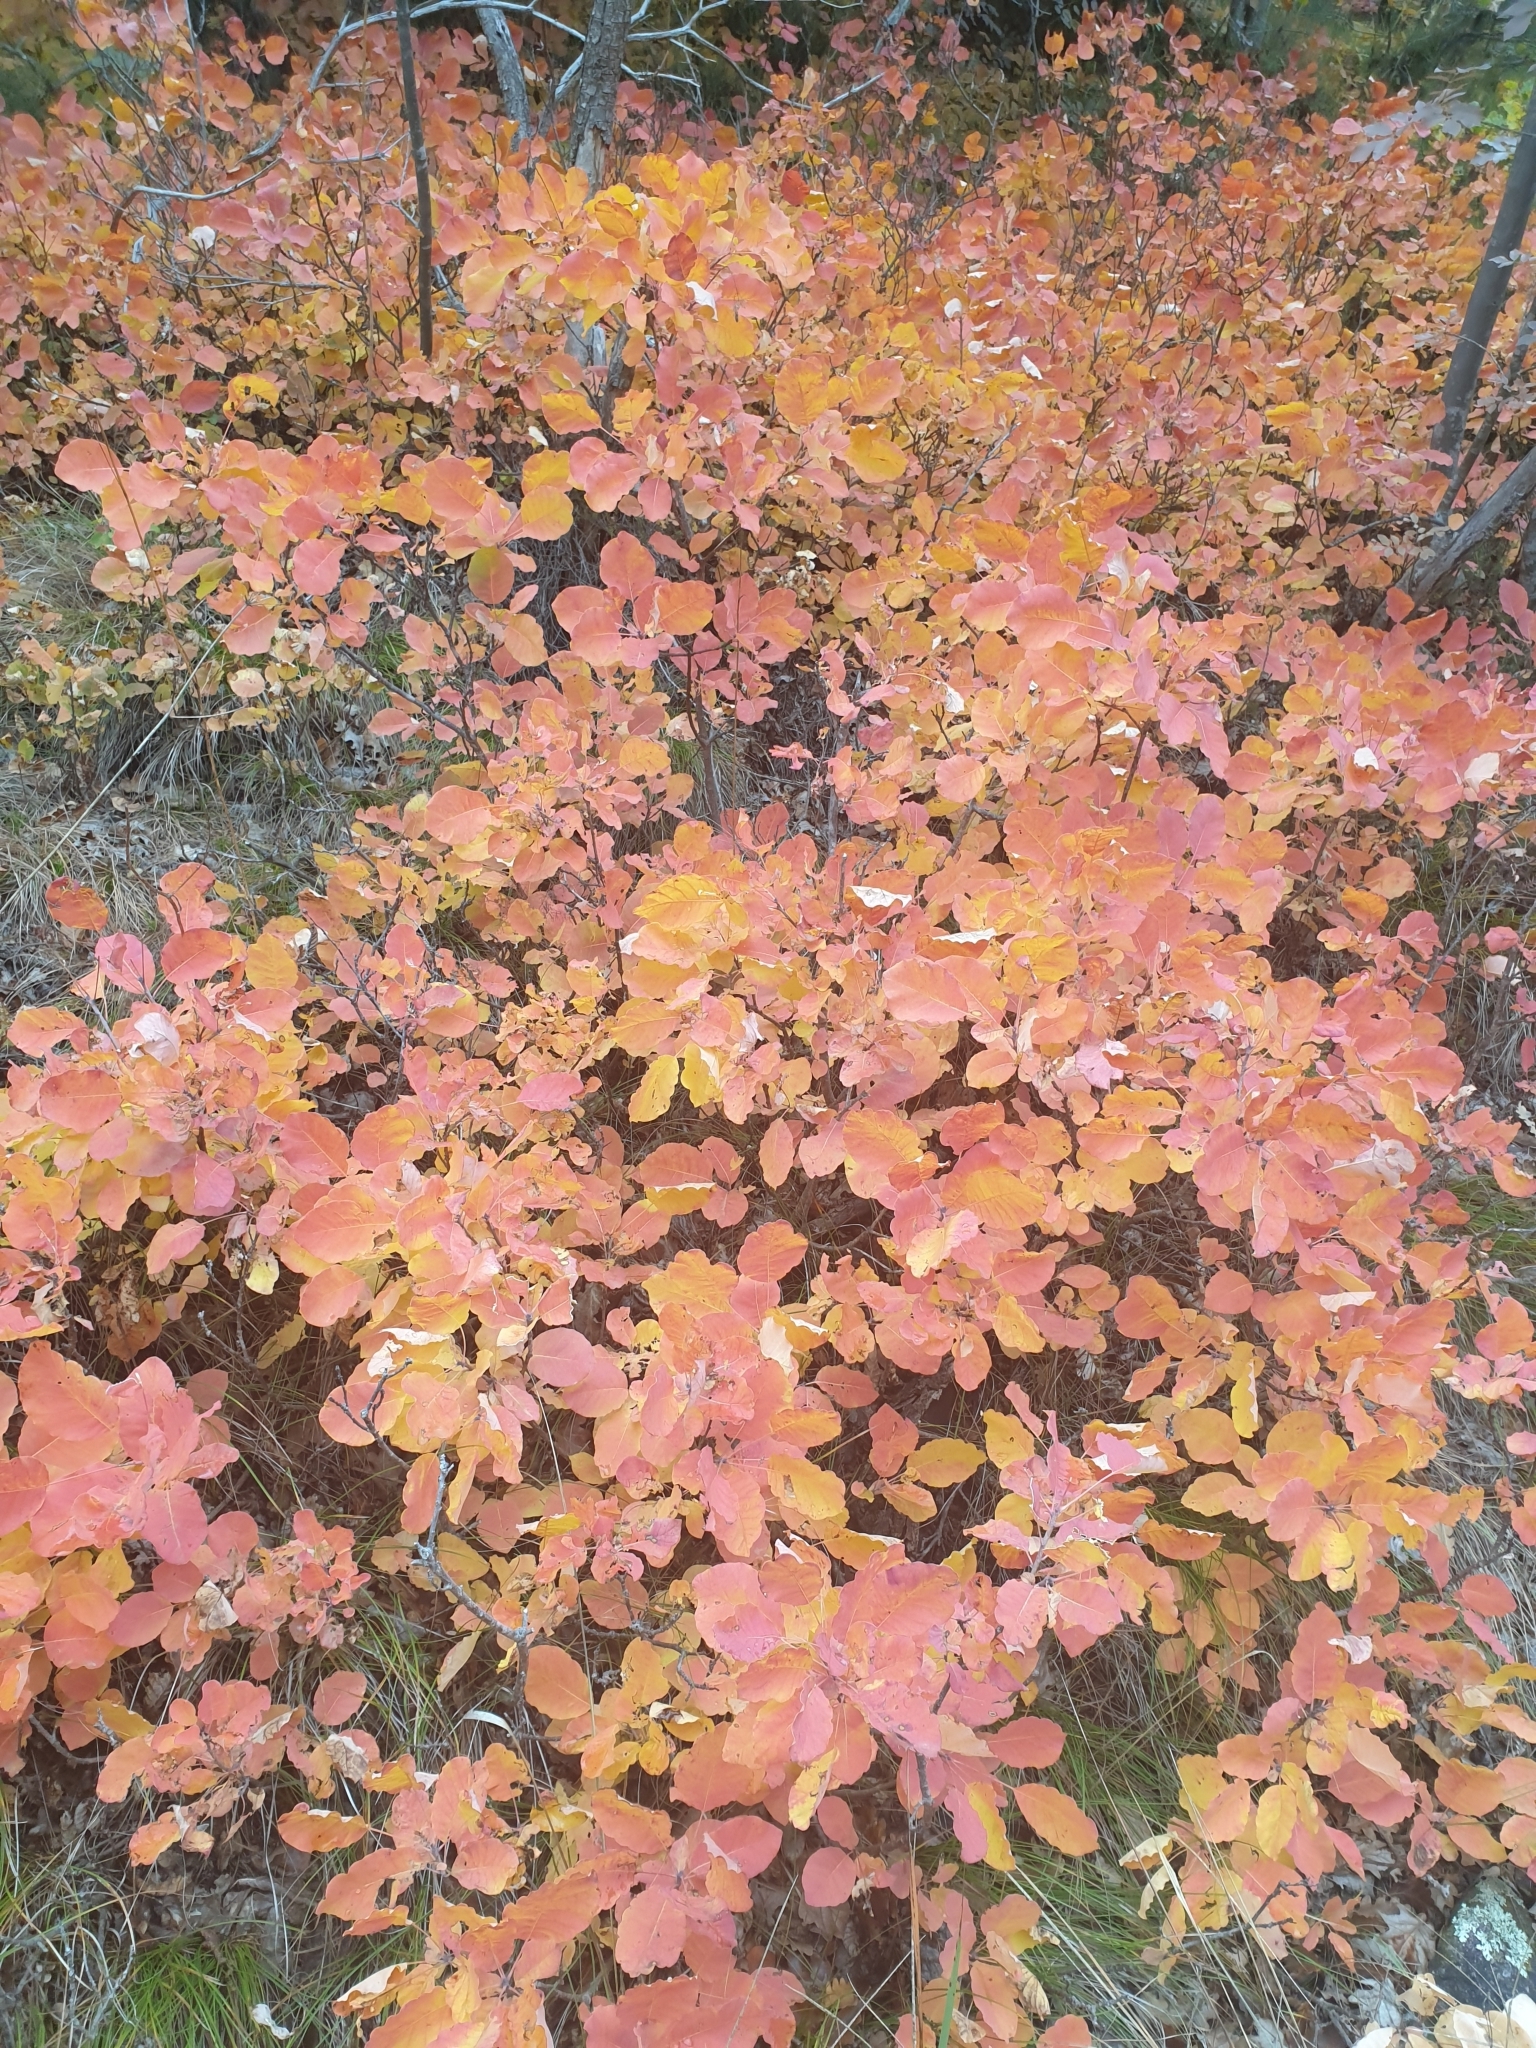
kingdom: Plantae
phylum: Tracheophyta
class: Magnoliopsida
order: Sapindales
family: Anacardiaceae
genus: Cotinus
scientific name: Cotinus coggygria
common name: Smoke-tree
